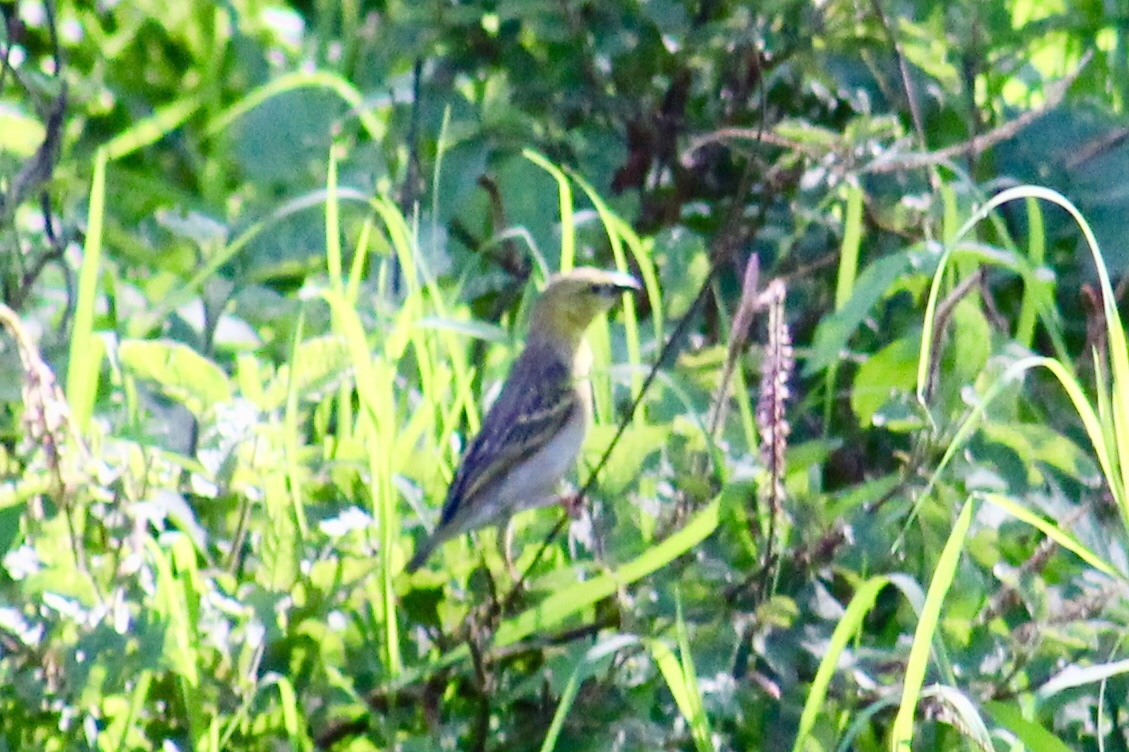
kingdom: Animalia
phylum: Chordata
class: Aves
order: Passeriformes
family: Ploceidae
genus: Ploceus
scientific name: Ploceus cucullatus
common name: Village weaver
